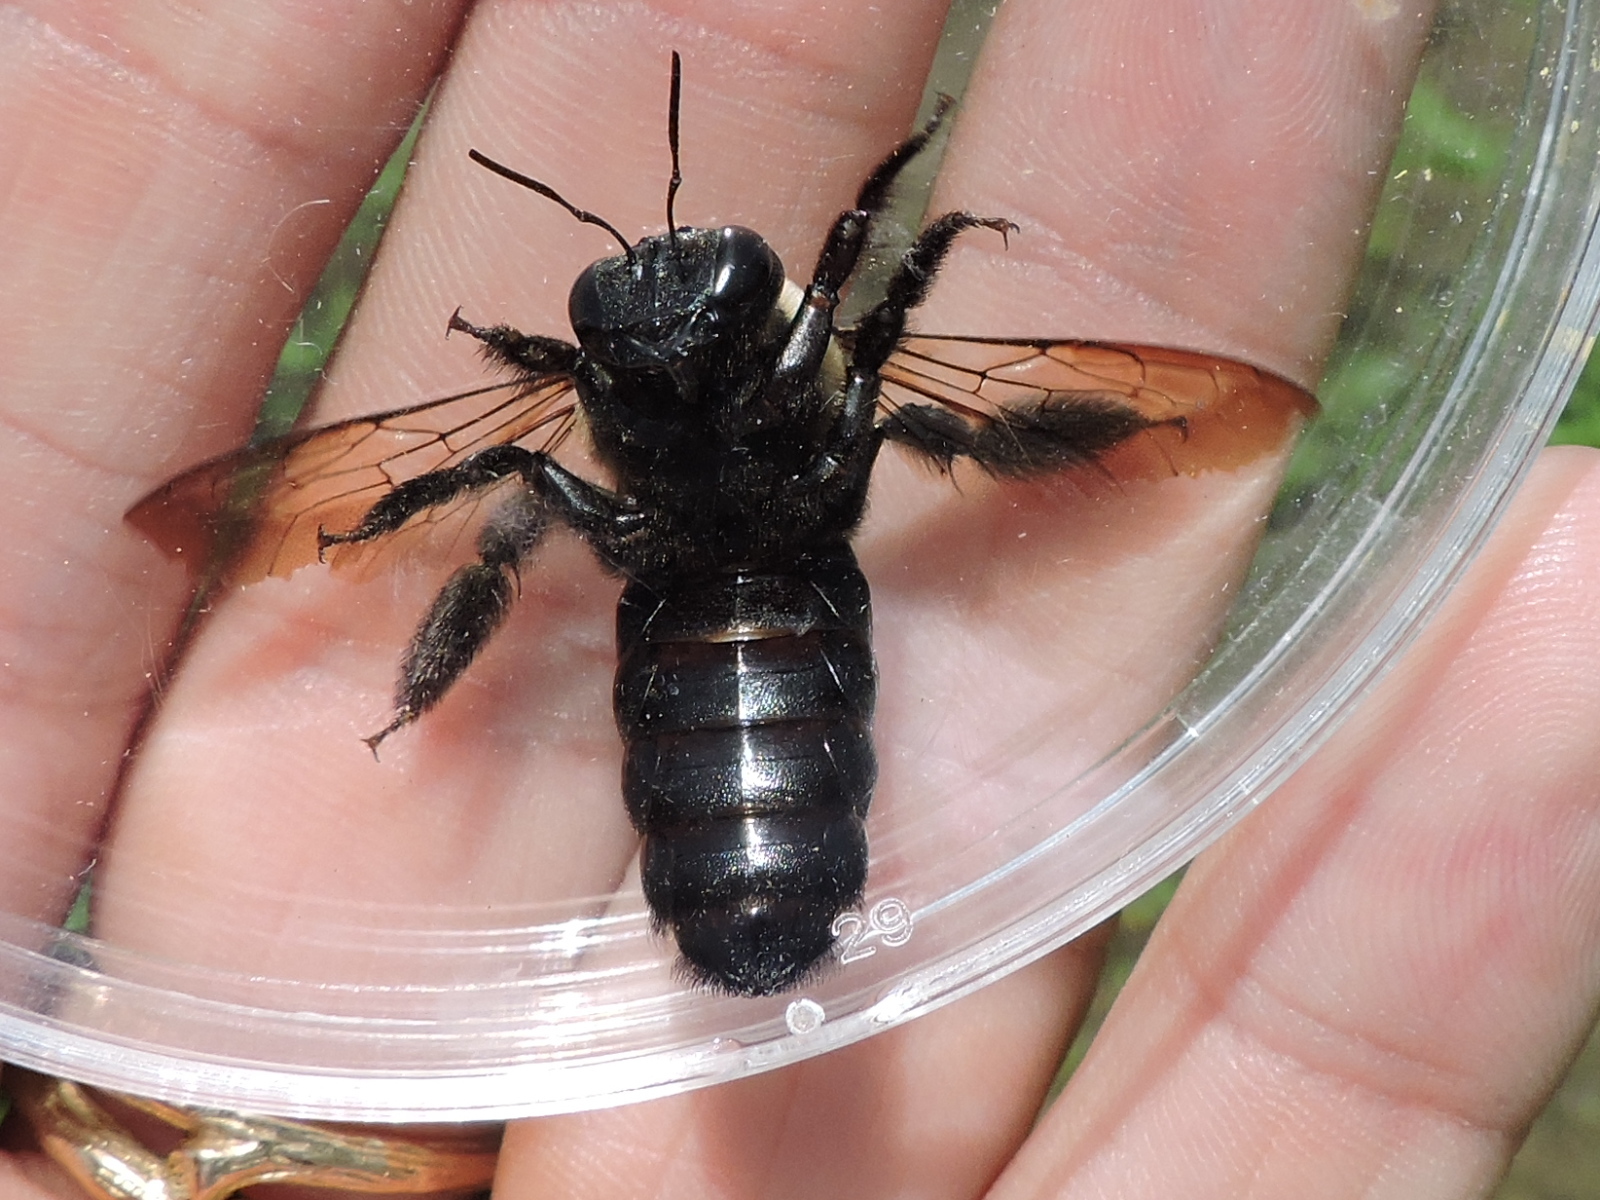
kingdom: Animalia
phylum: Arthropoda
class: Insecta
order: Hymenoptera
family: Apidae
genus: Xylocopa
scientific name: Xylocopa virginica
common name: Carpenter bee
